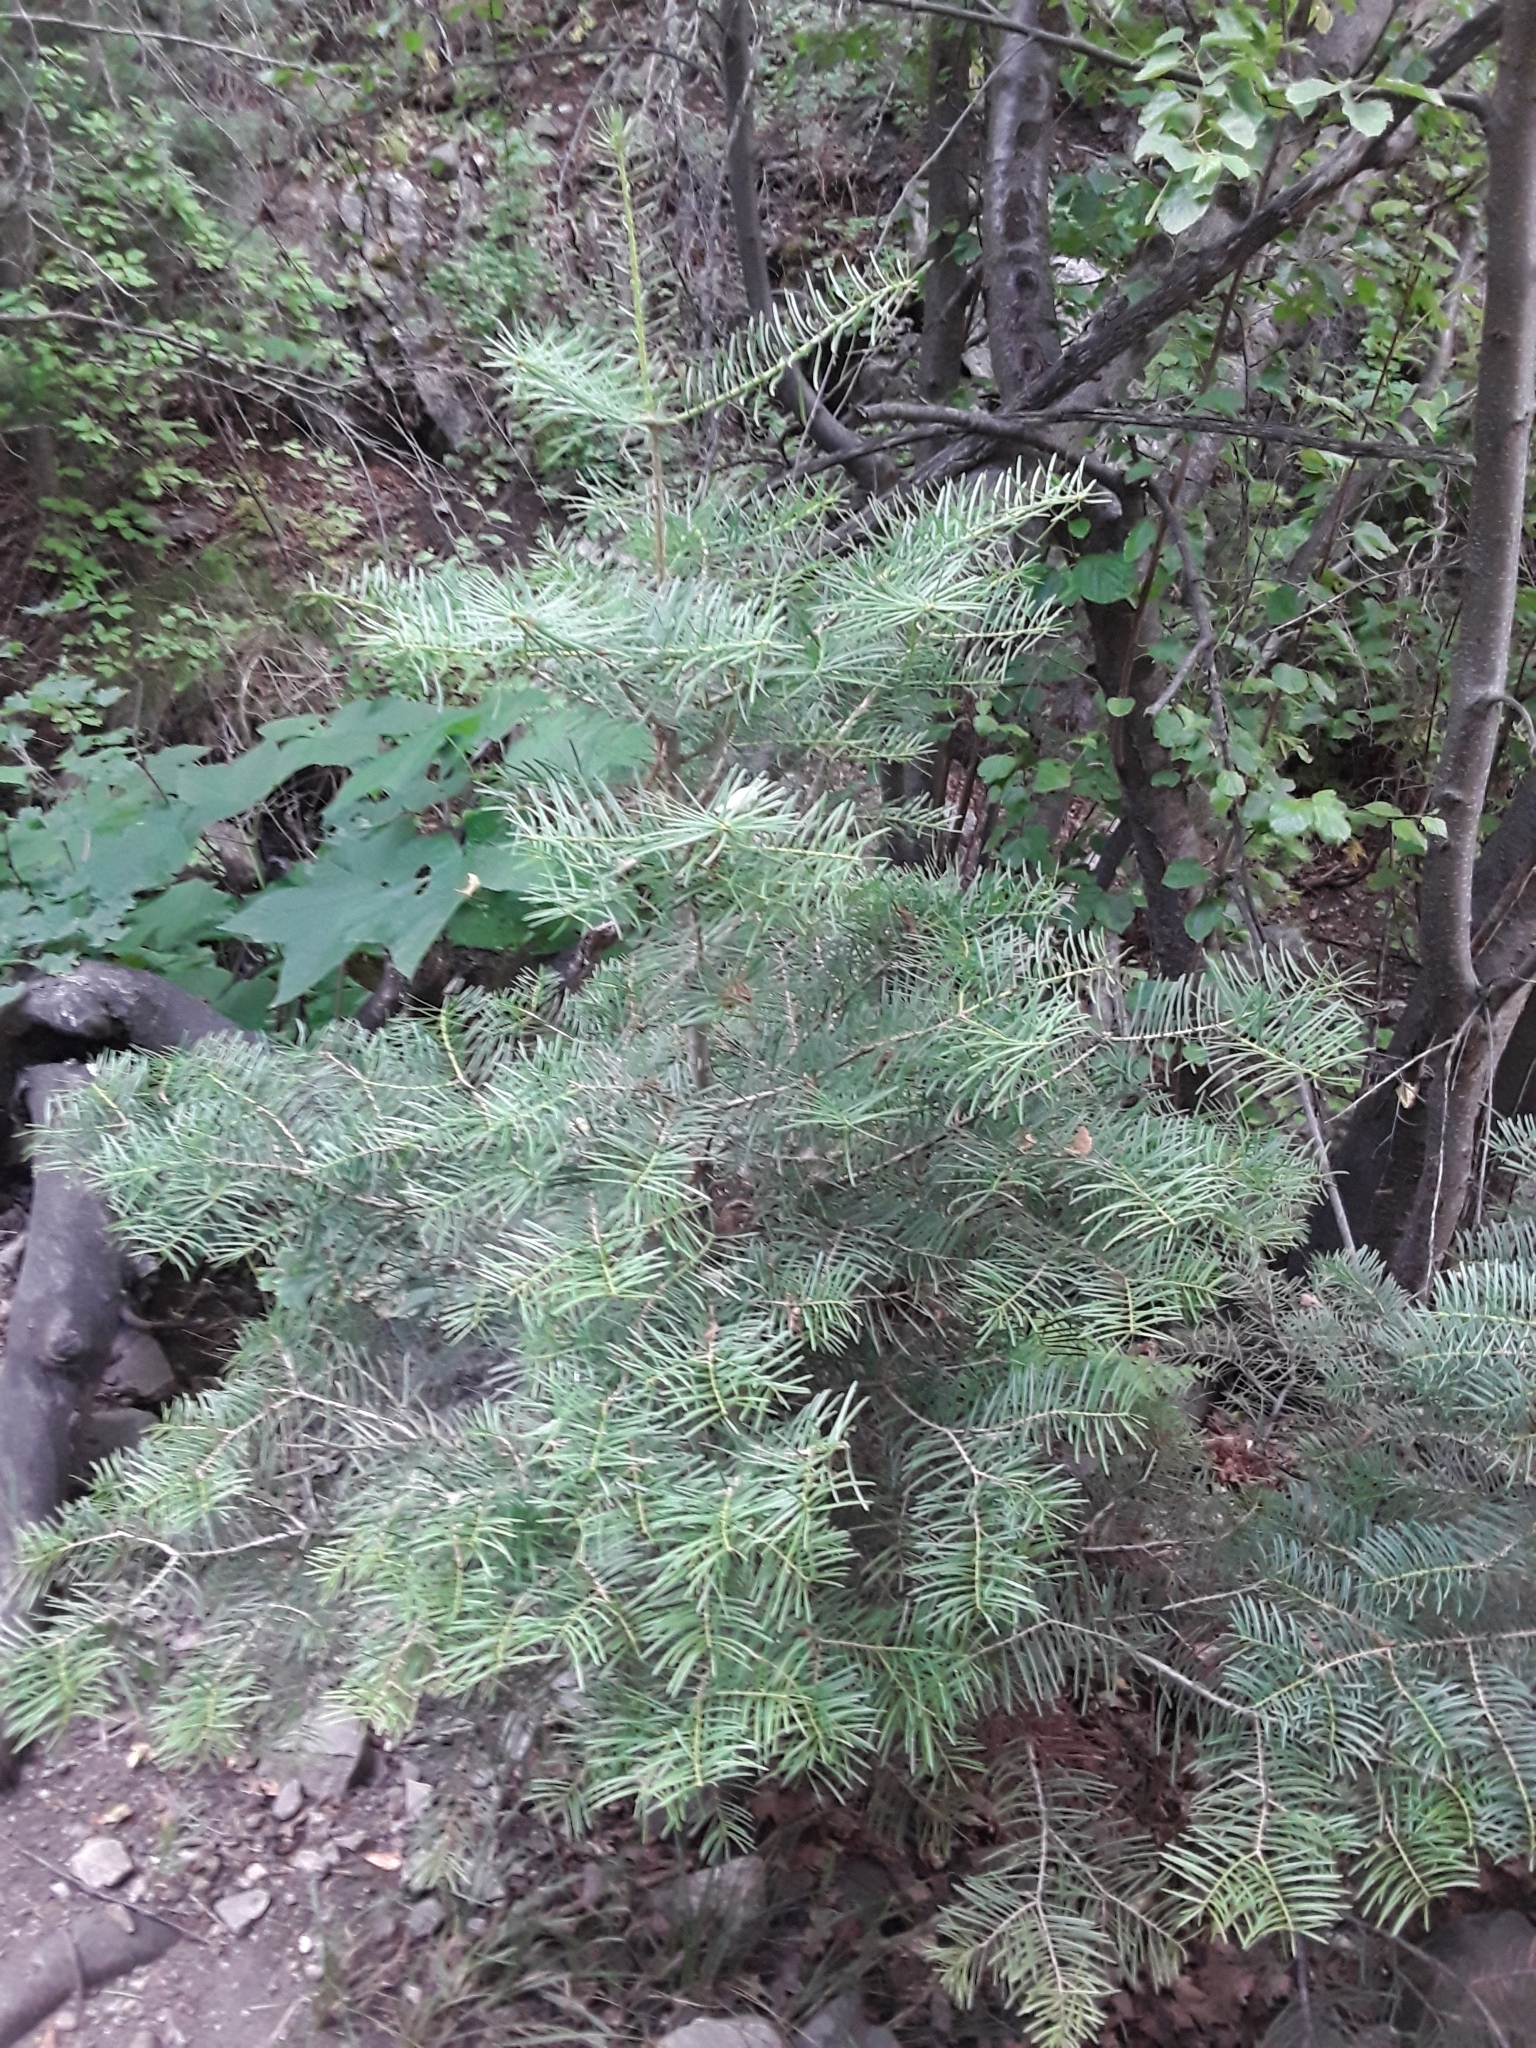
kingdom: Plantae
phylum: Tracheophyta
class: Pinopsida
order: Pinales
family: Pinaceae
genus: Abies
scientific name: Abies concolor
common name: Colorado fir
